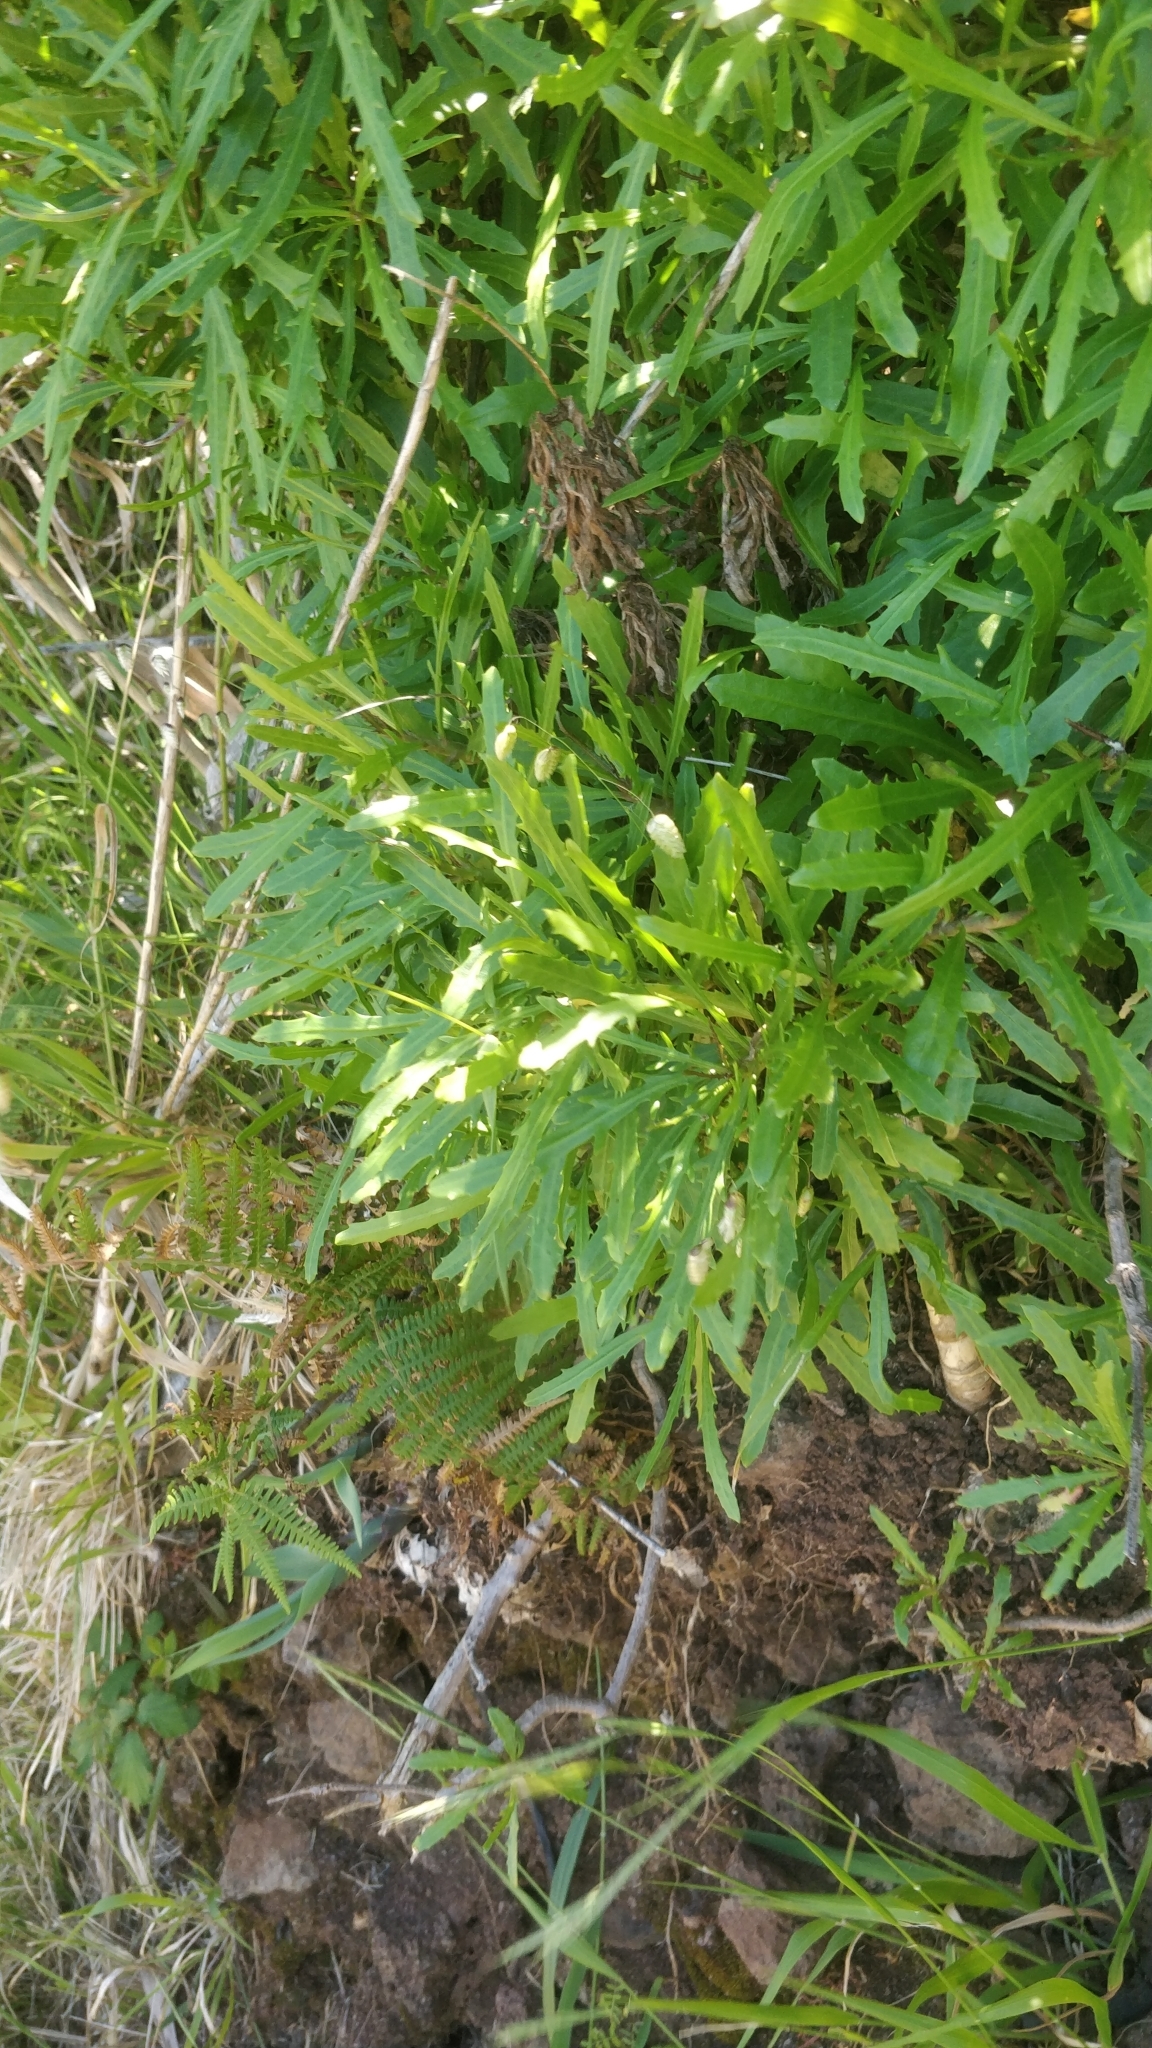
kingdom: Plantae
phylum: Tracheophyta
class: Magnoliopsida
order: Asterales
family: Asteraceae
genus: Tolpis
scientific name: Tolpis succulenta
